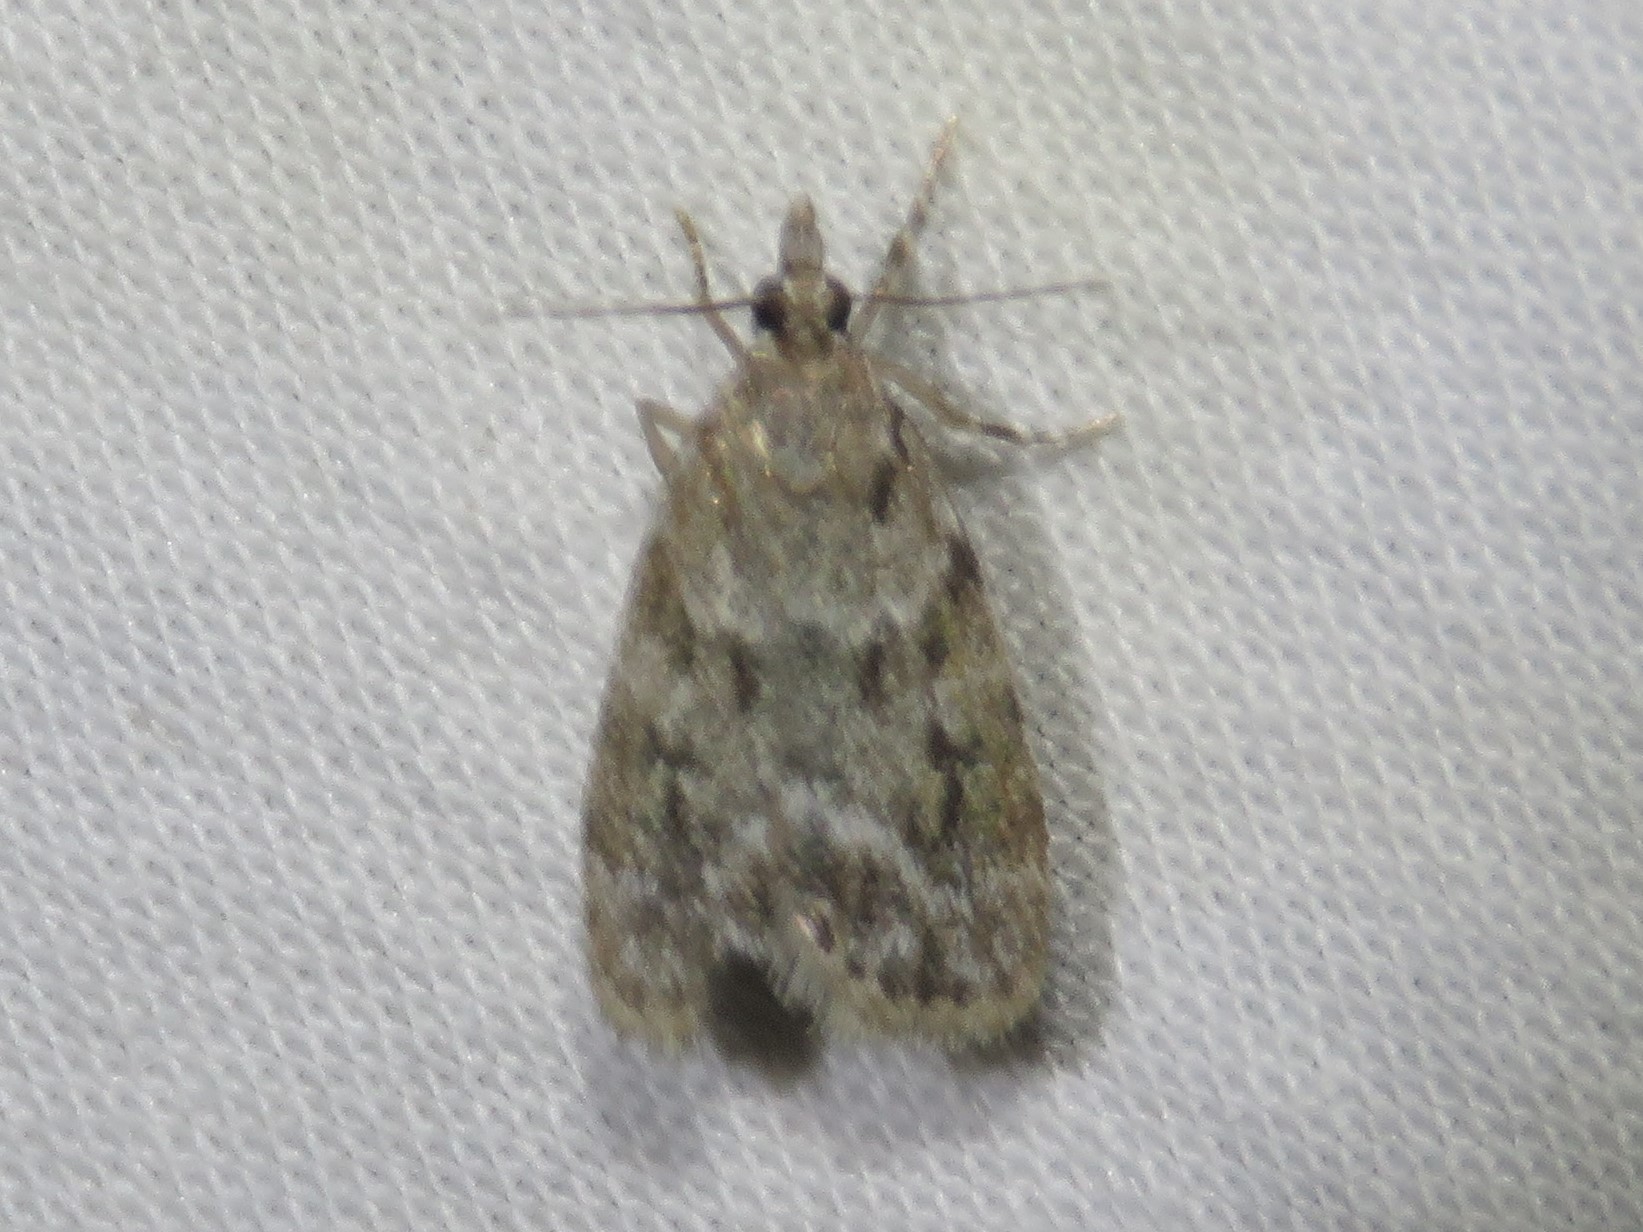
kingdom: Animalia
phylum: Arthropoda
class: Insecta
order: Lepidoptera
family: Crambidae
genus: Scoparia
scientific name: Scoparia basalis
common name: Many-spotted scoparia moth
